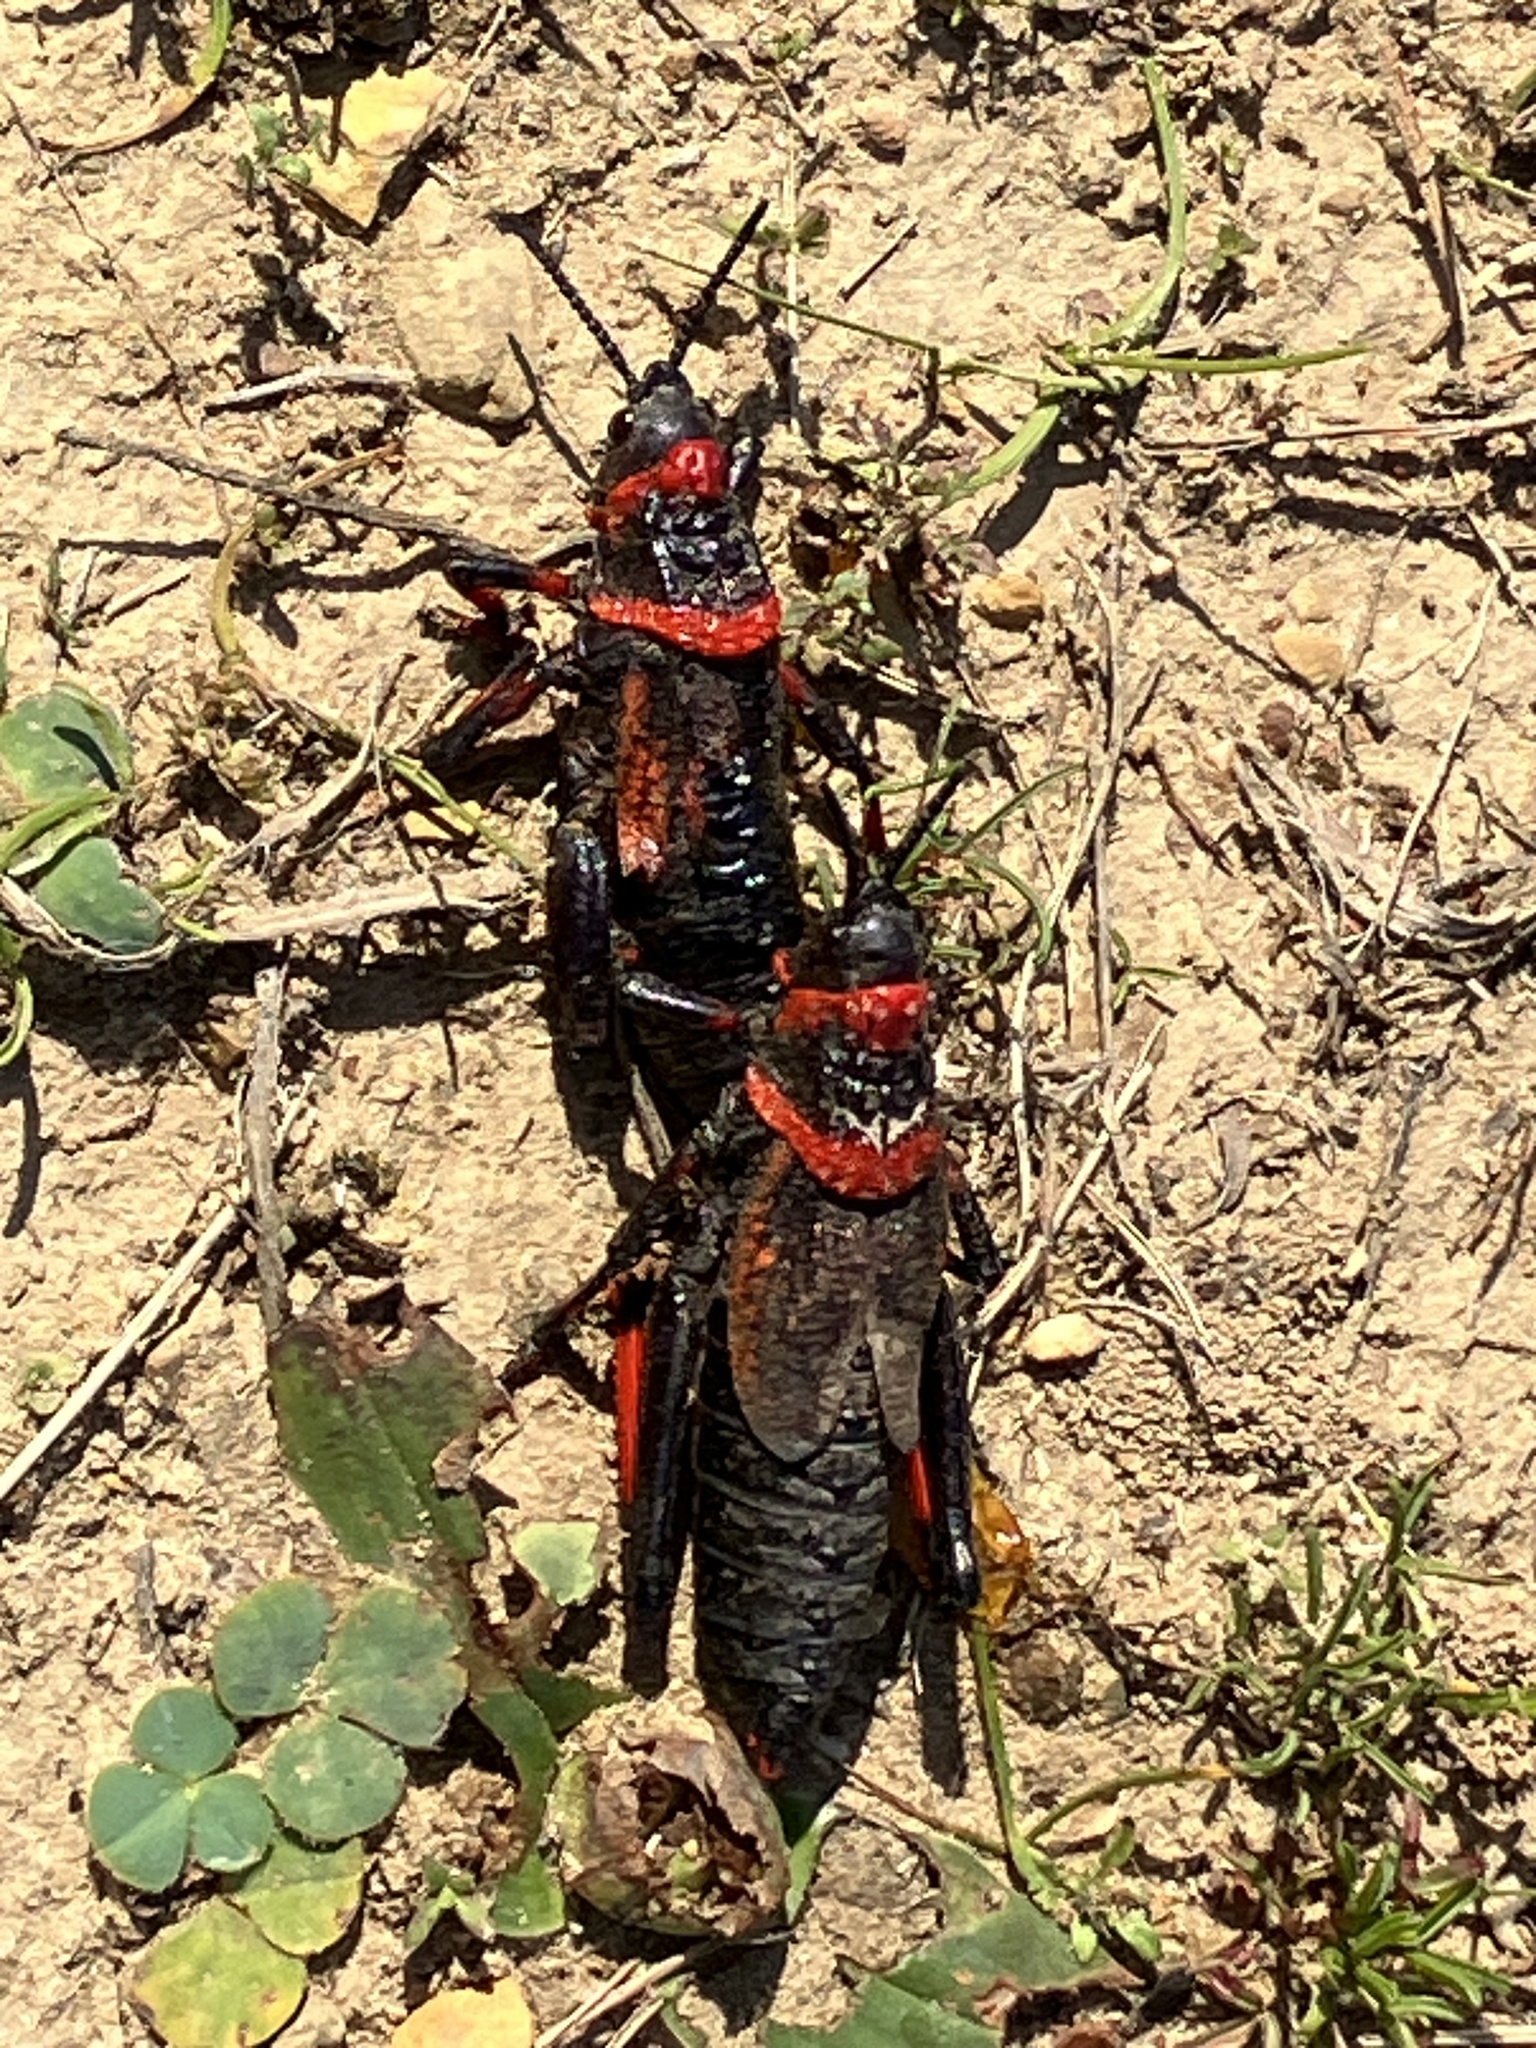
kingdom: Animalia
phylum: Arthropoda
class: Insecta
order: Orthoptera
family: Pyrgomorphidae
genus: Dictyophorus
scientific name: Dictyophorus spumans
